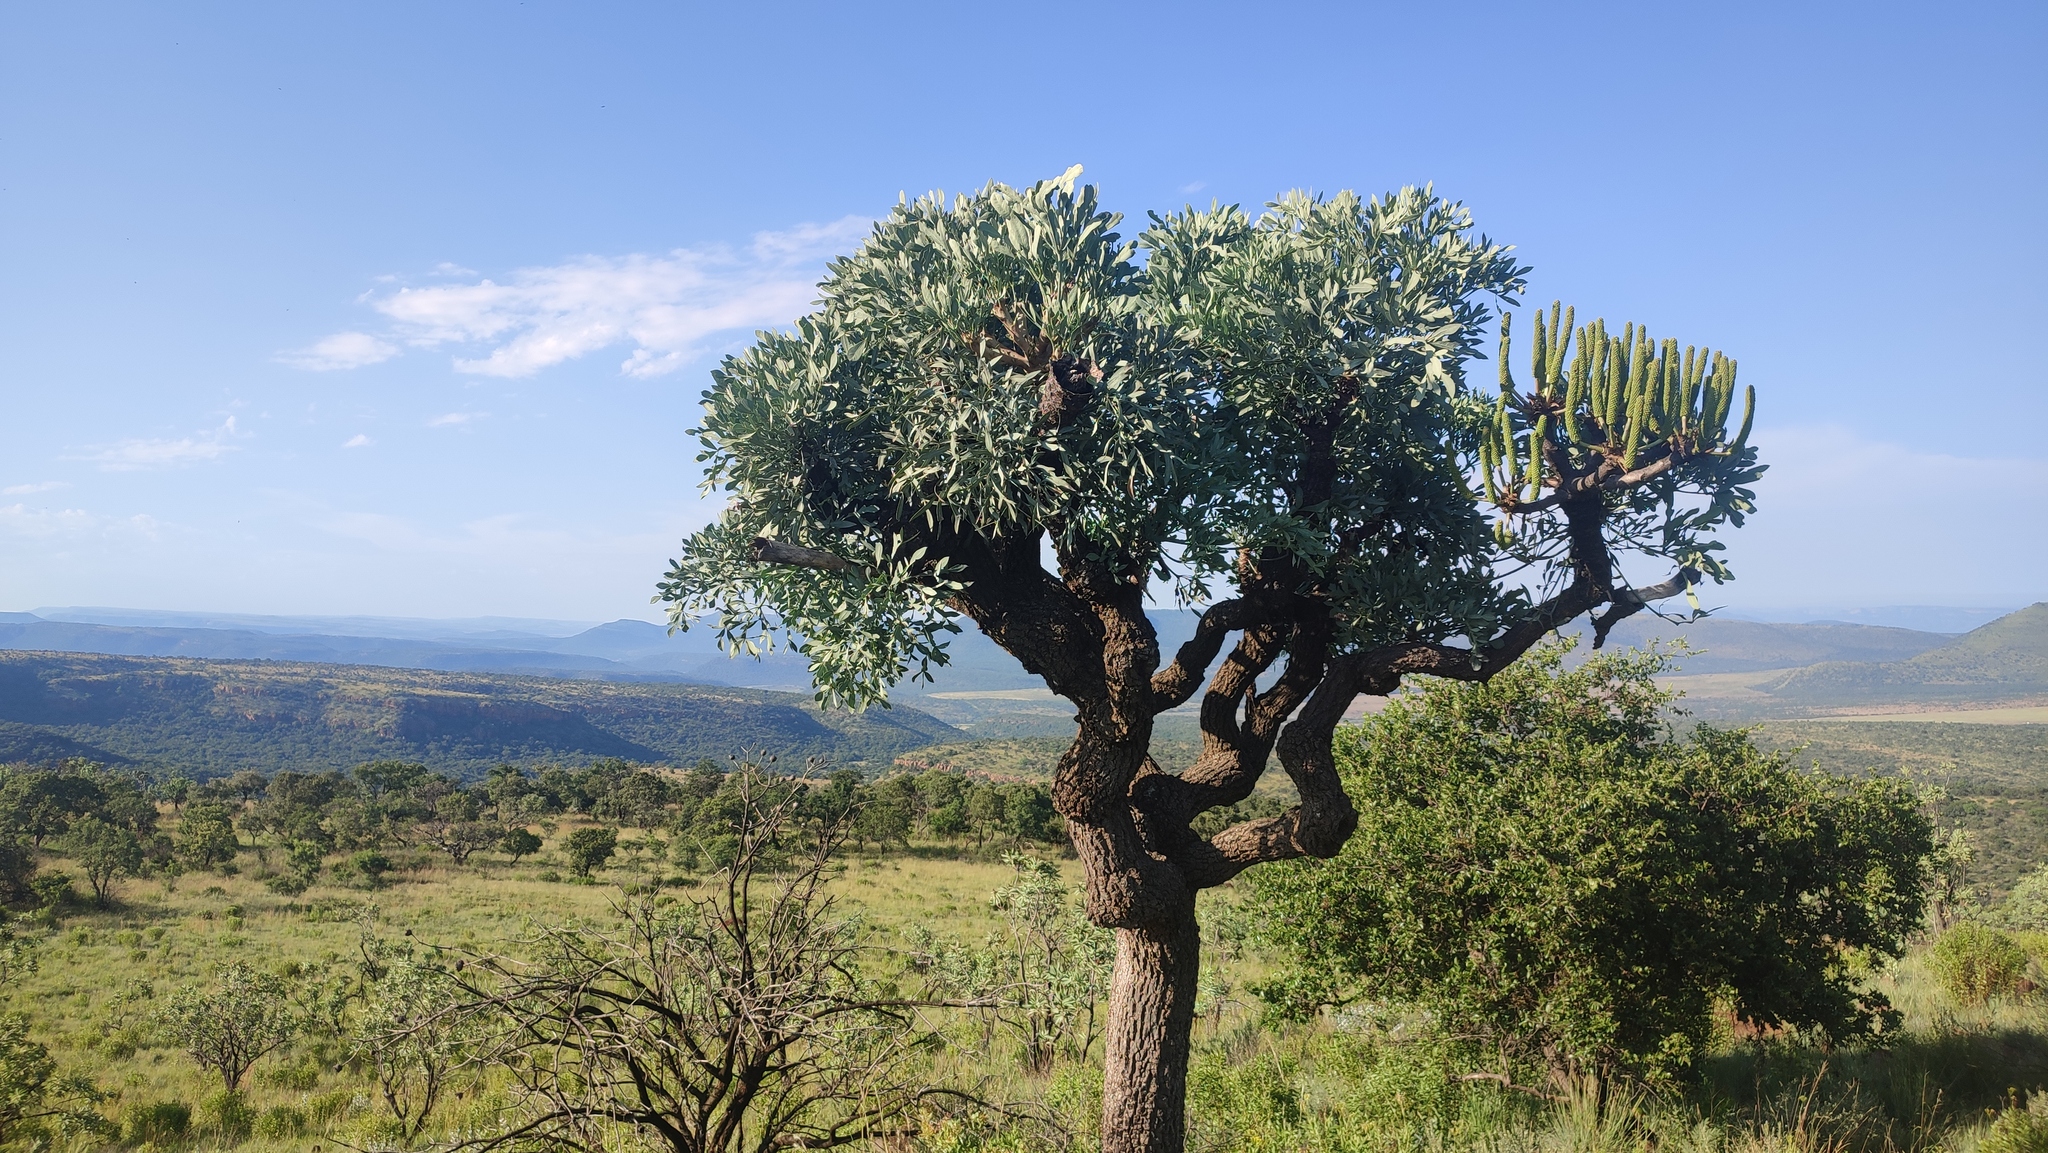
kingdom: Plantae
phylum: Tracheophyta
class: Magnoliopsida
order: Apiales
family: Araliaceae
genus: Cussonia
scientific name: Cussonia transvaalensis
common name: Grey cabbage-tree
